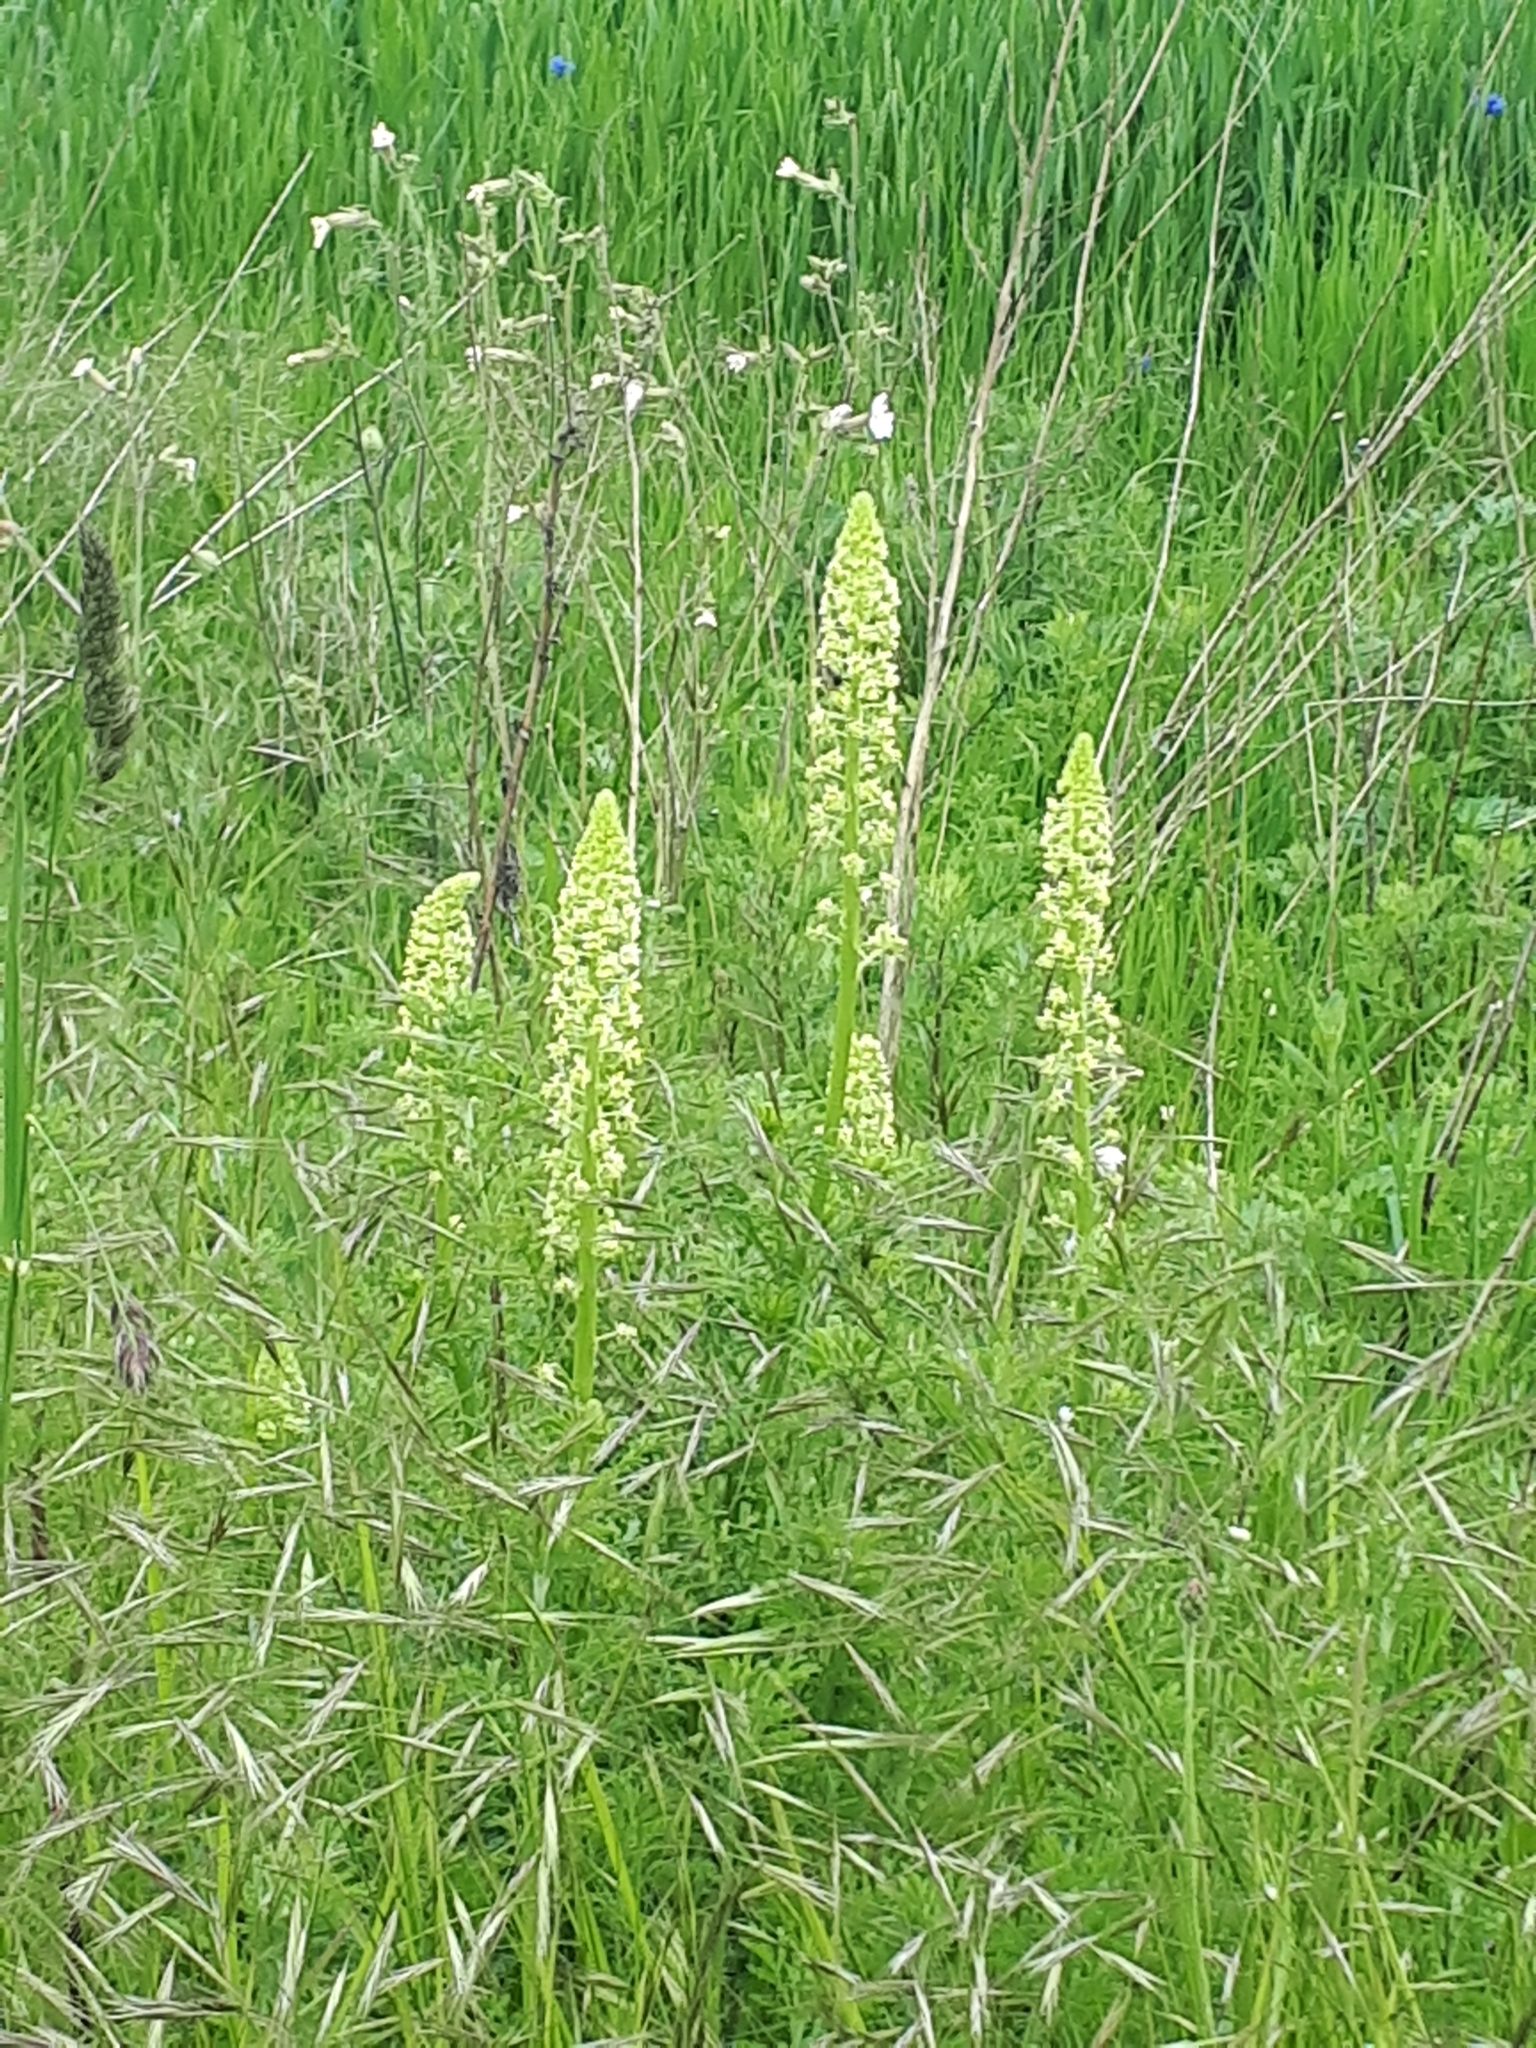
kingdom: Plantae
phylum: Tracheophyta
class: Magnoliopsida
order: Brassicales
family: Resedaceae
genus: Reseda
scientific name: Reseda lutea
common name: Wild mignonette
